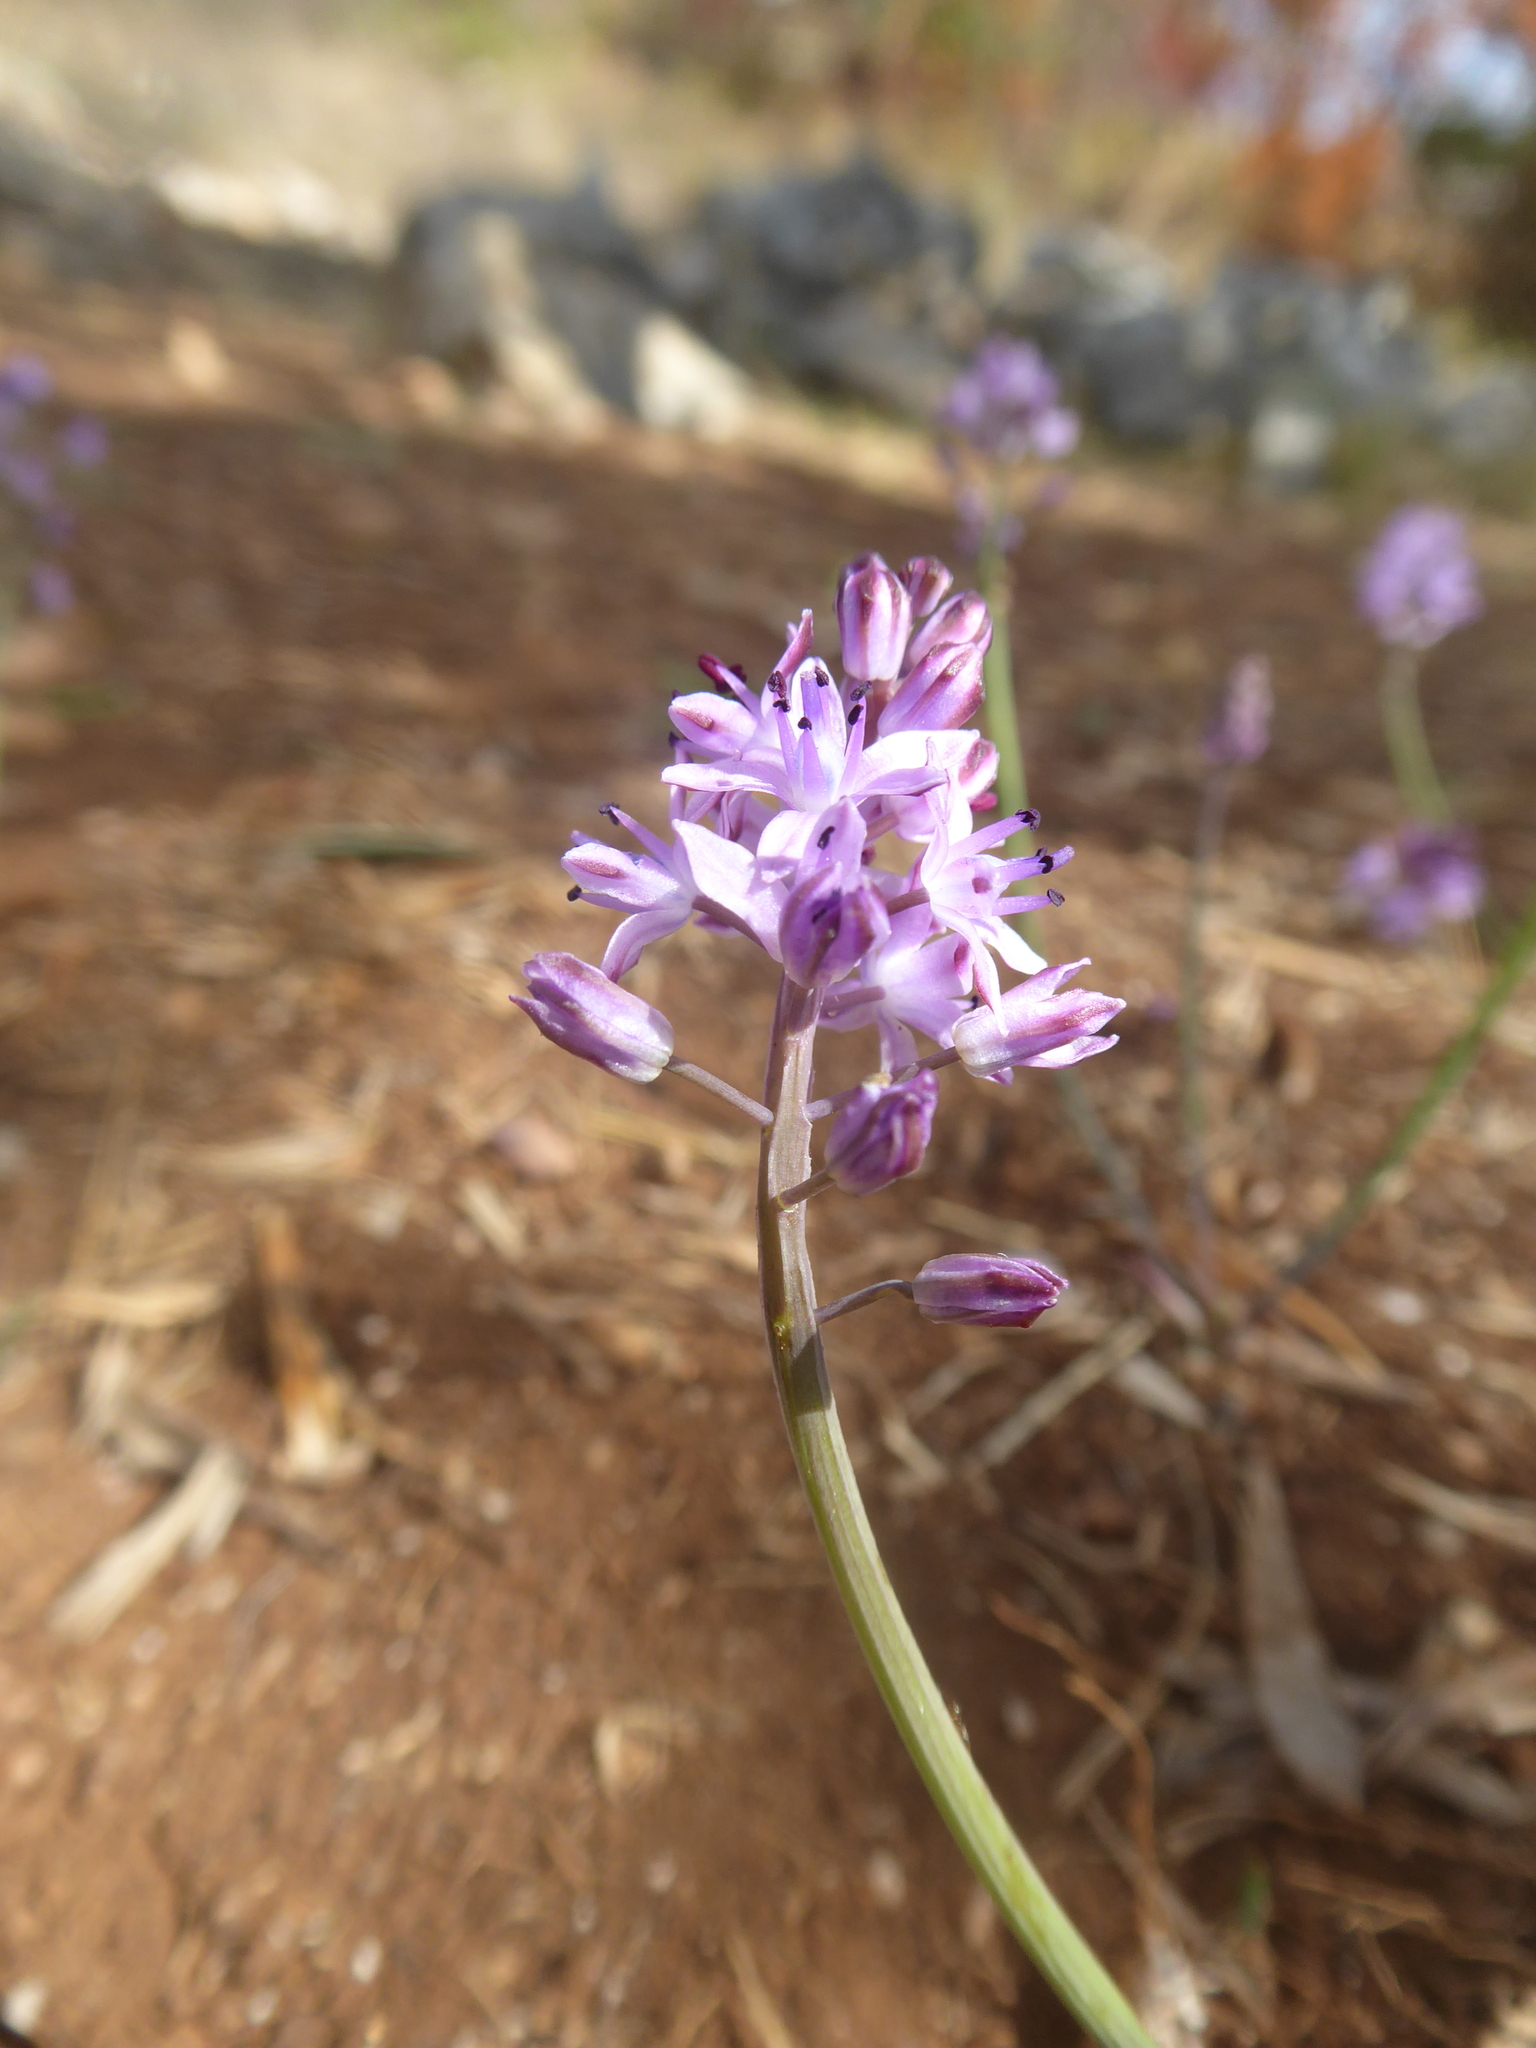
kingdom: Plantae
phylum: Tracheophyta
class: Liliopsida
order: Asparagales
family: Asparagaceae
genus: Prospero
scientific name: Prospero autumnale
